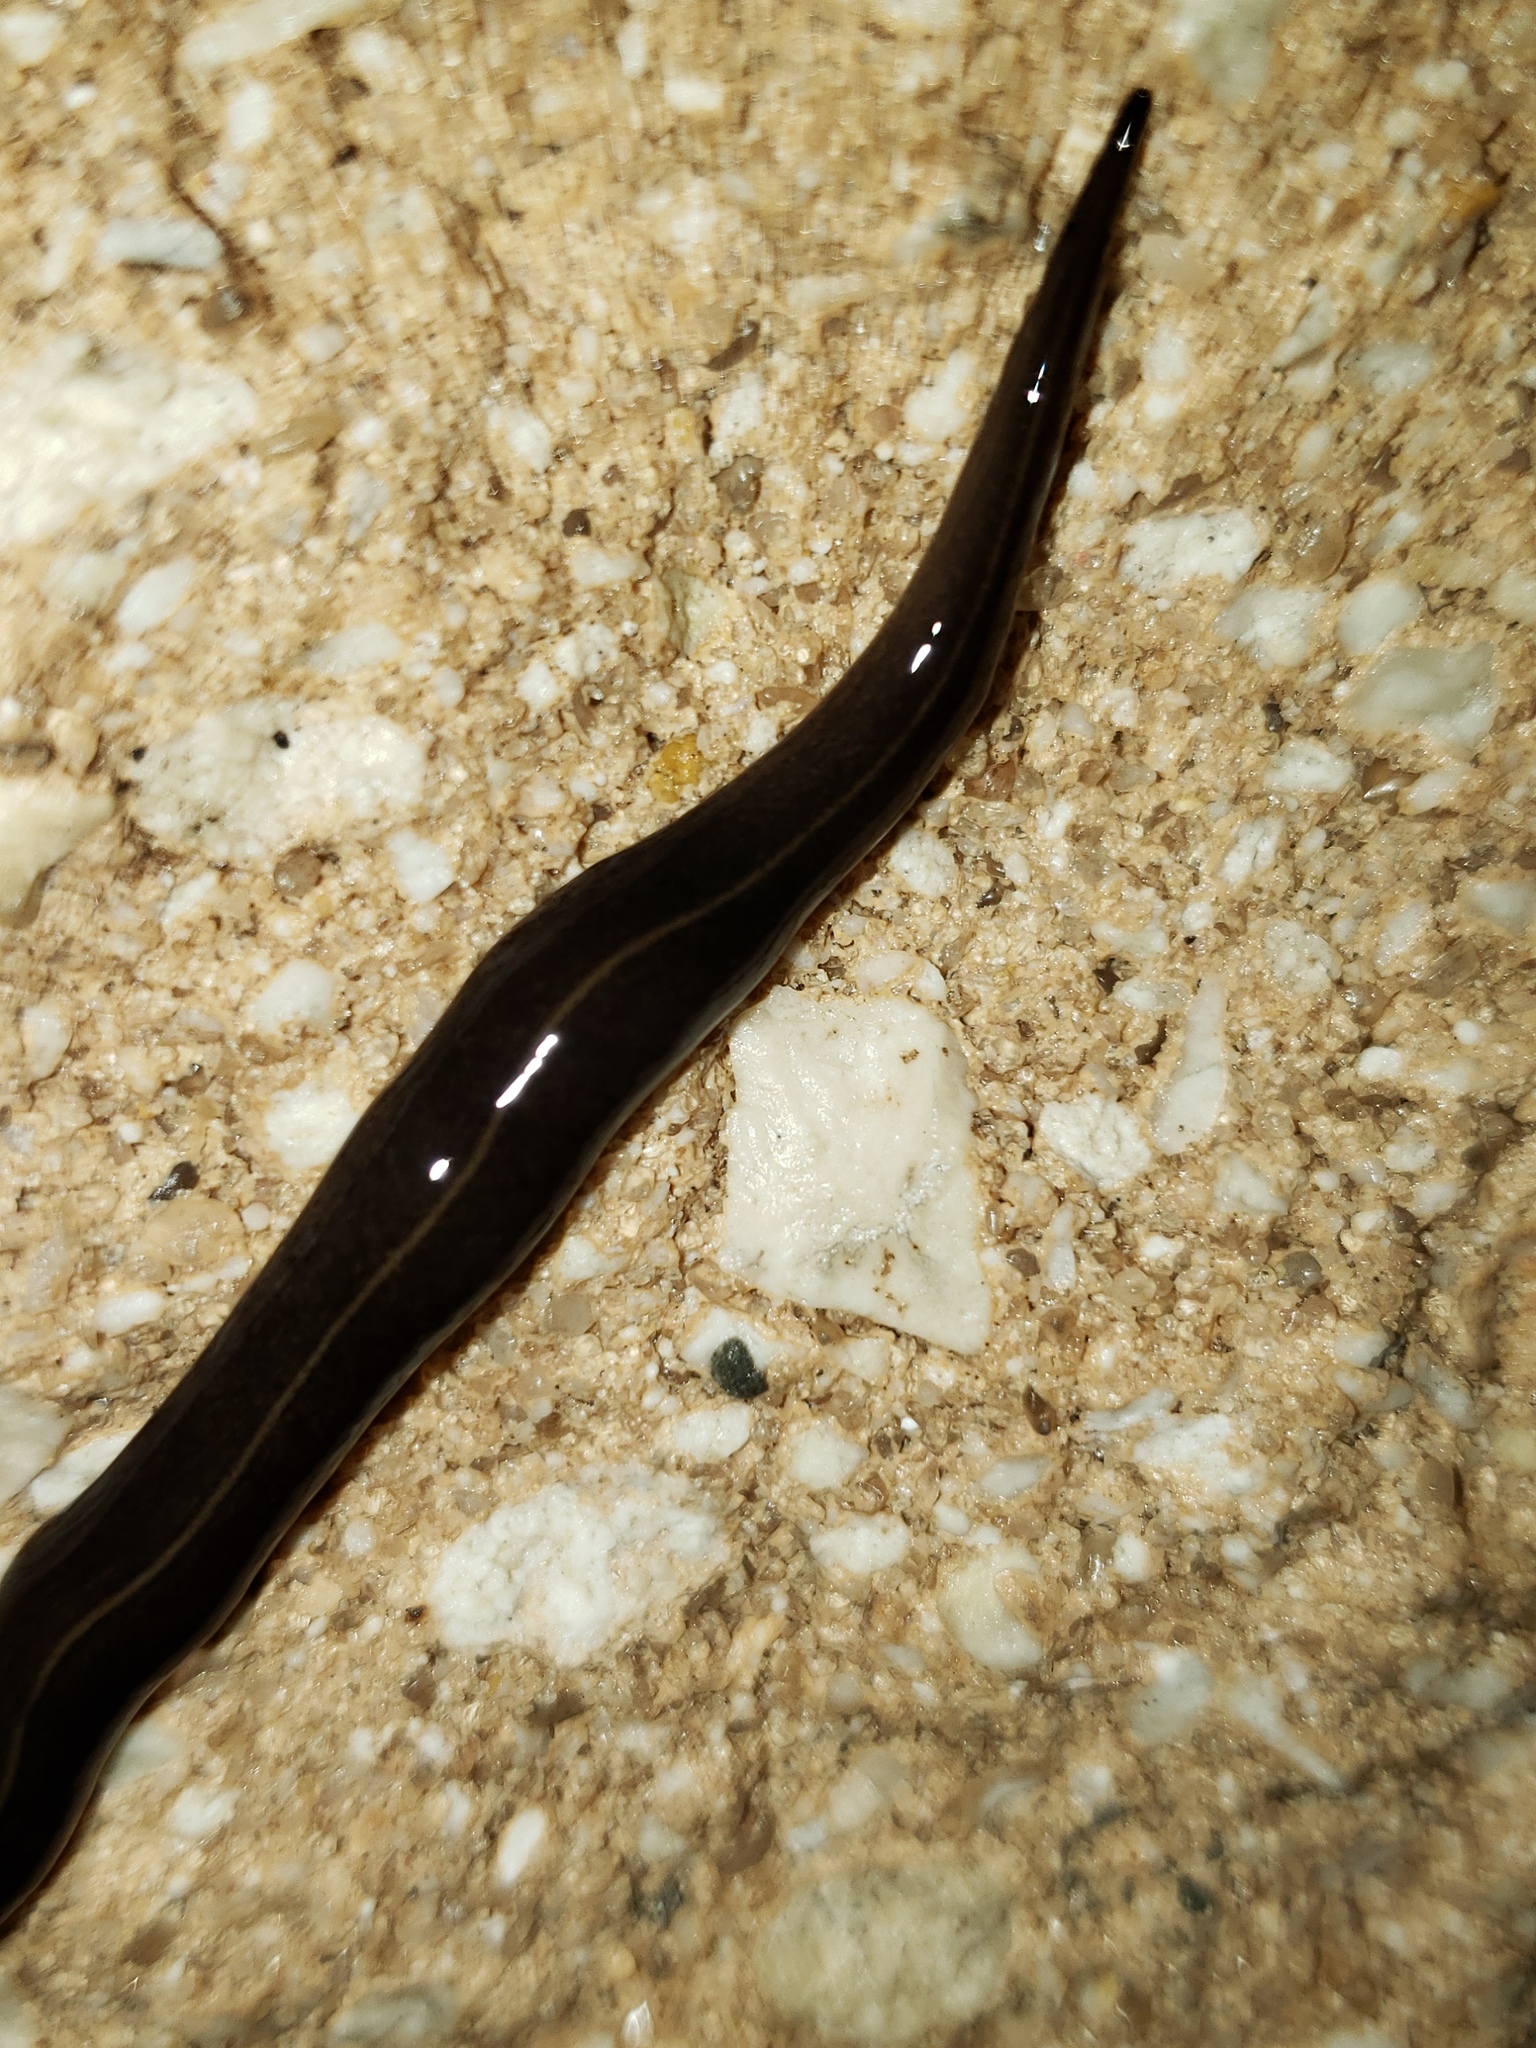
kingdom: Animalia
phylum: Platyhelminthes
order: Tricladida
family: Geoplanidae
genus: Platydemus
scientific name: Platydemus manokwari
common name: New guinea flatworm
